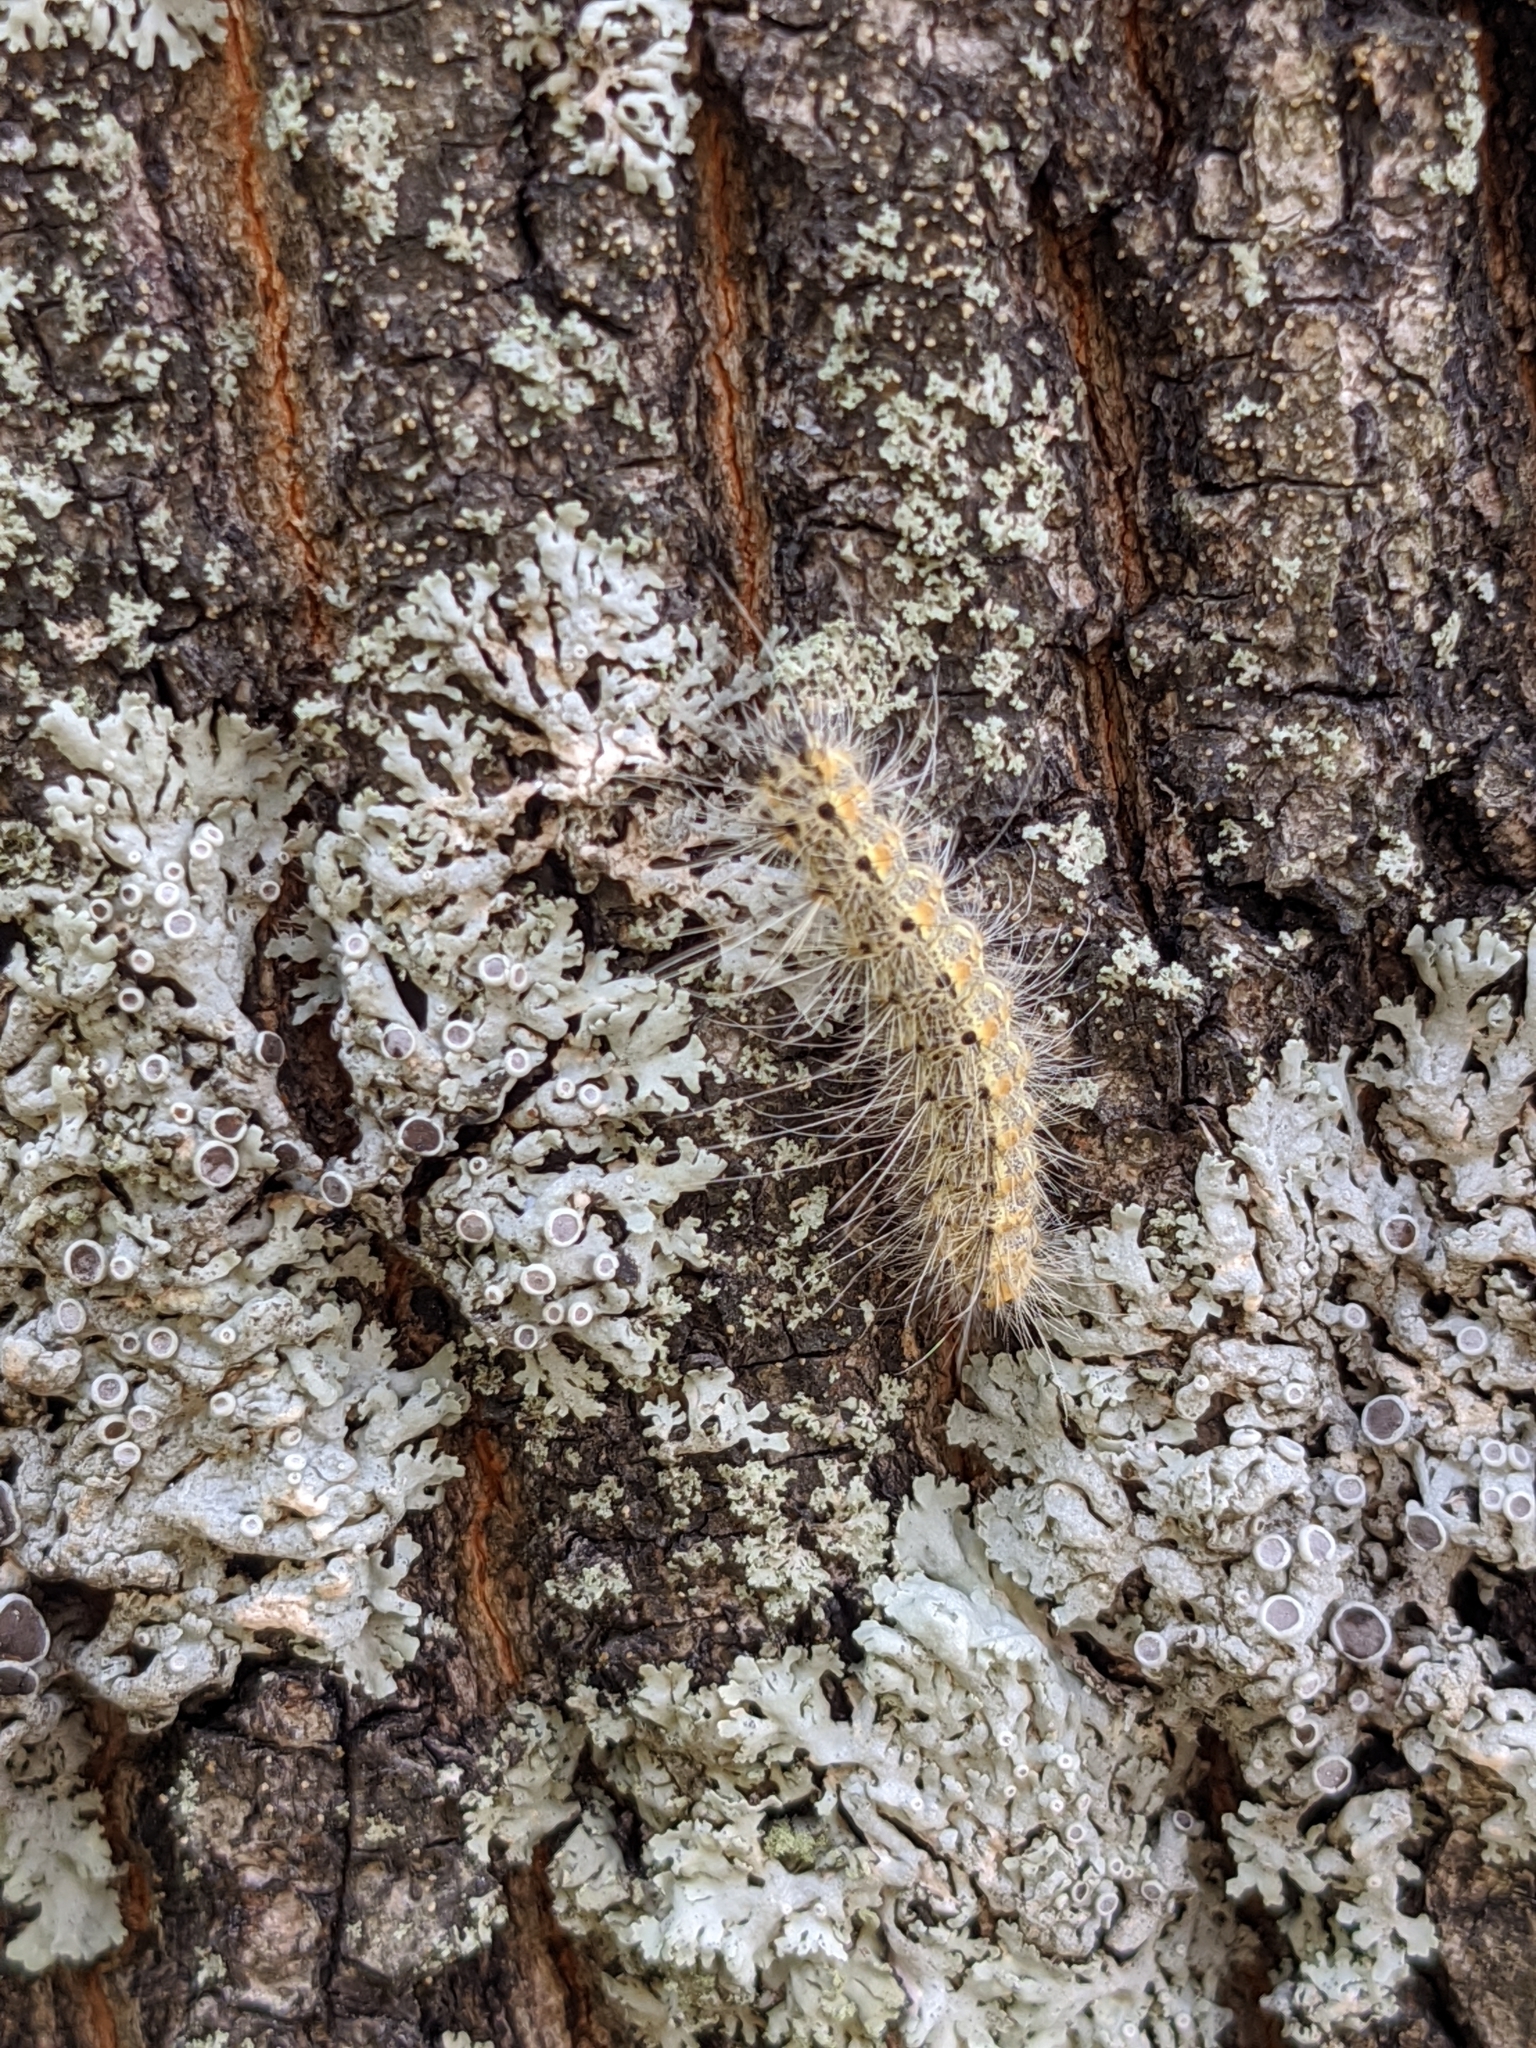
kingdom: Animalia
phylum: Arthropoda
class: Insecta
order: Lepidoptera
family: Erebidae
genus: Hyphantria
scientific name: Hyphantria cunea
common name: American white moth
